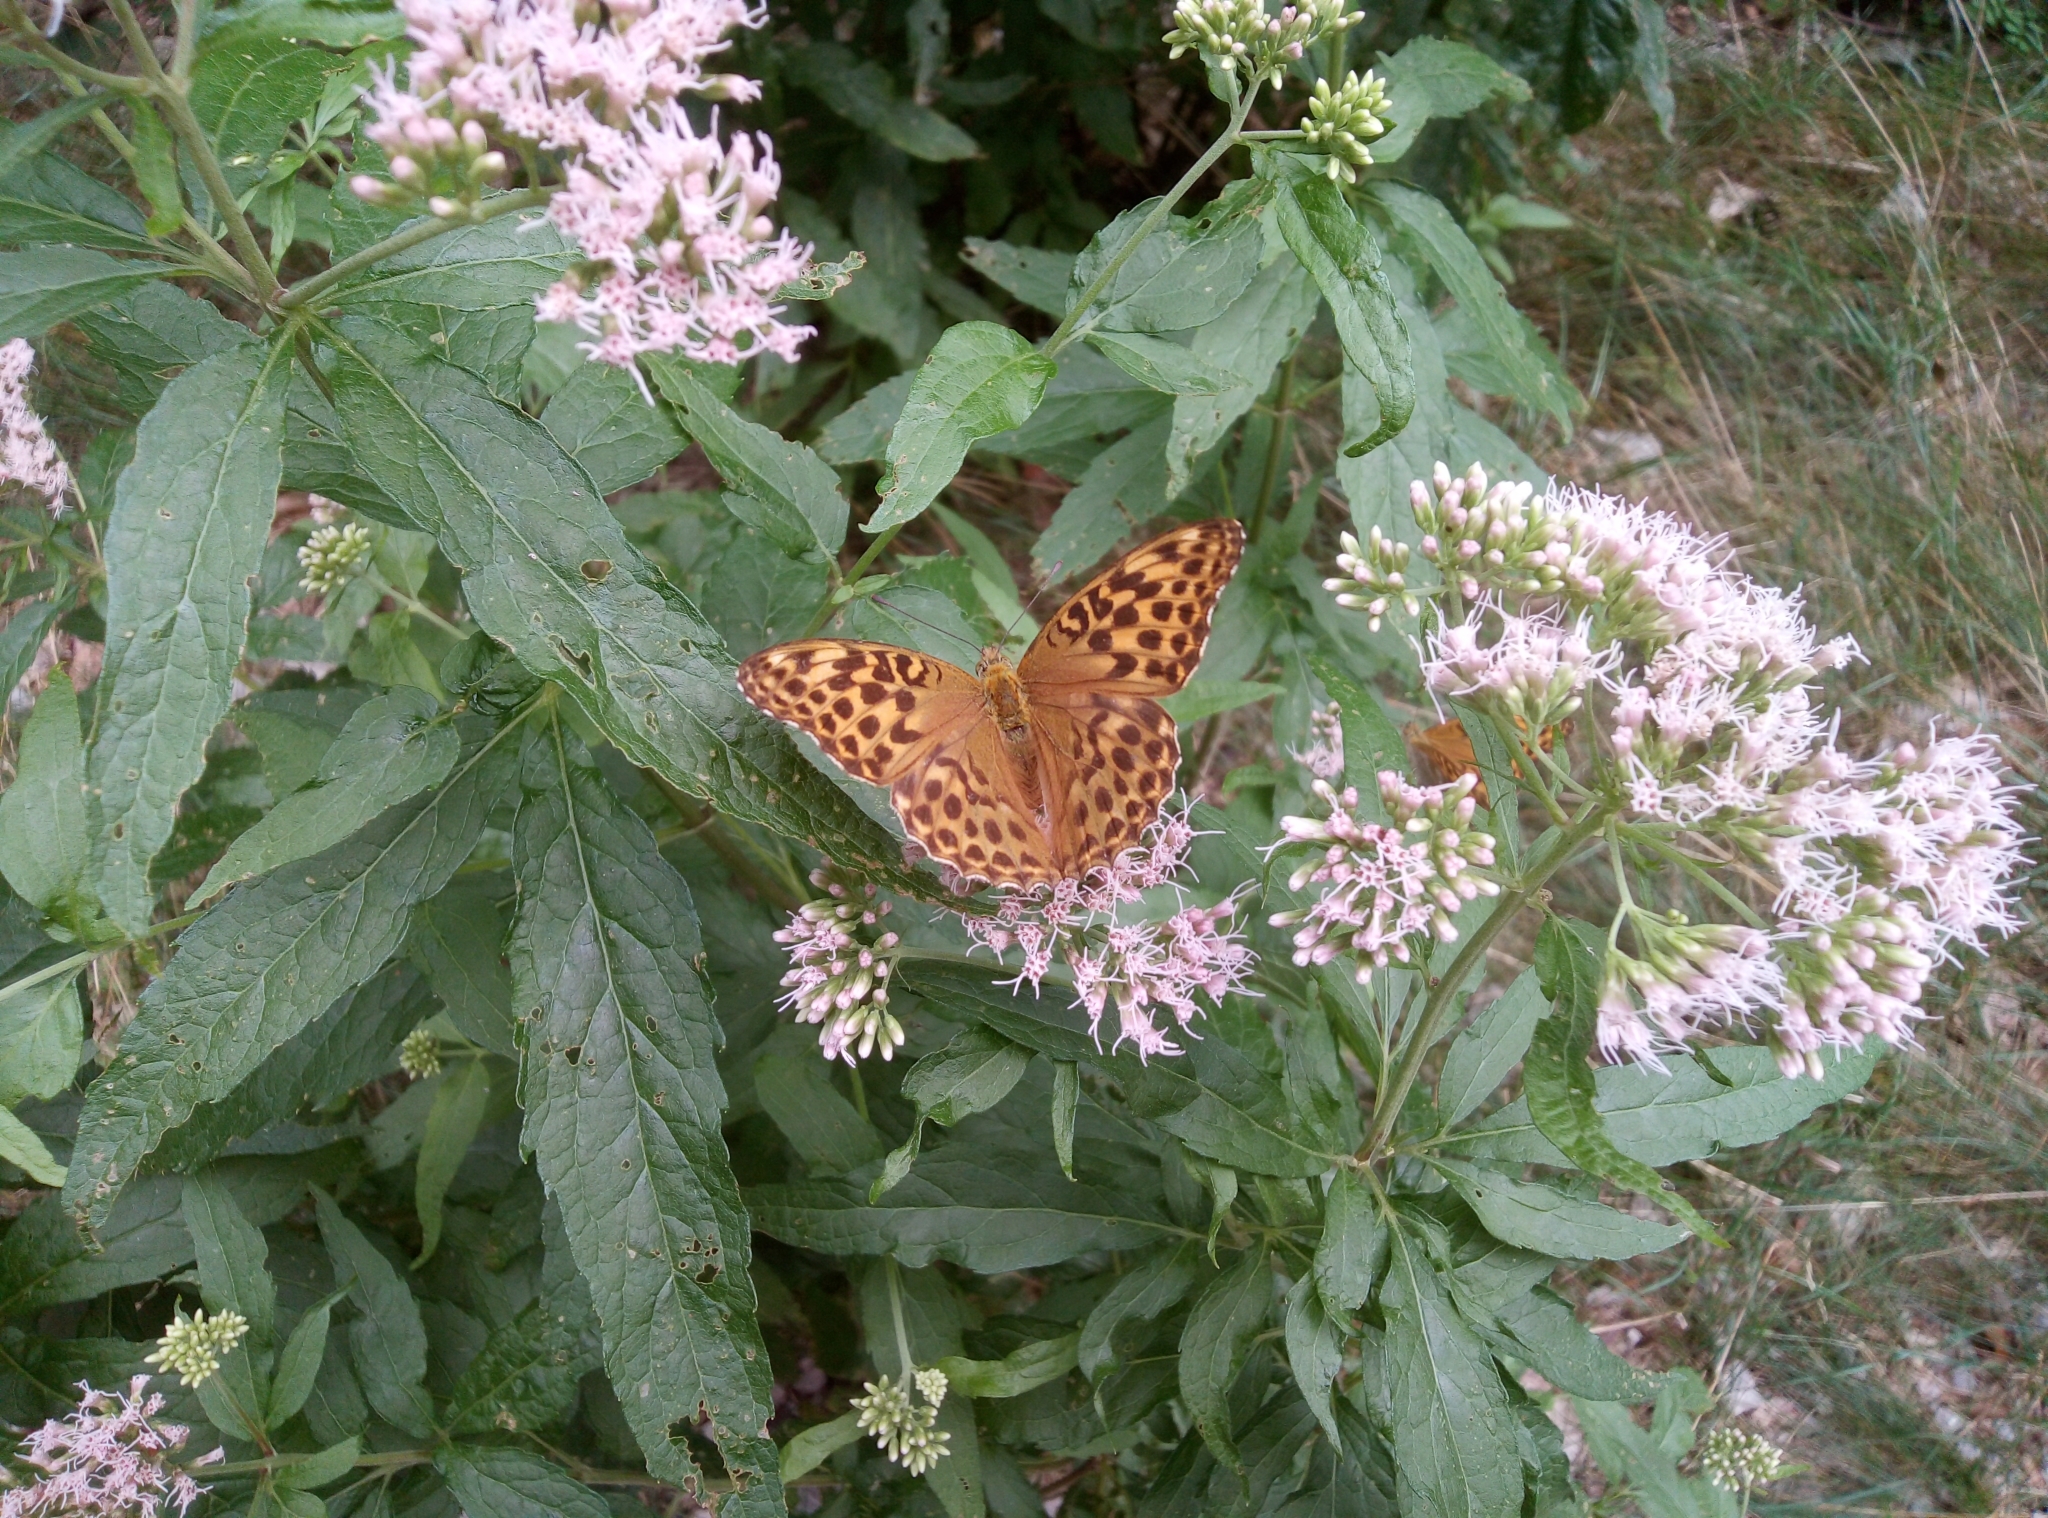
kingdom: Animalia
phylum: Arthropoda
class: Insecta
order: Lepidoptera
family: Nymphalidae
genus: Argynnis
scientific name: Argynnis paphia
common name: Silver-washed fritillary
